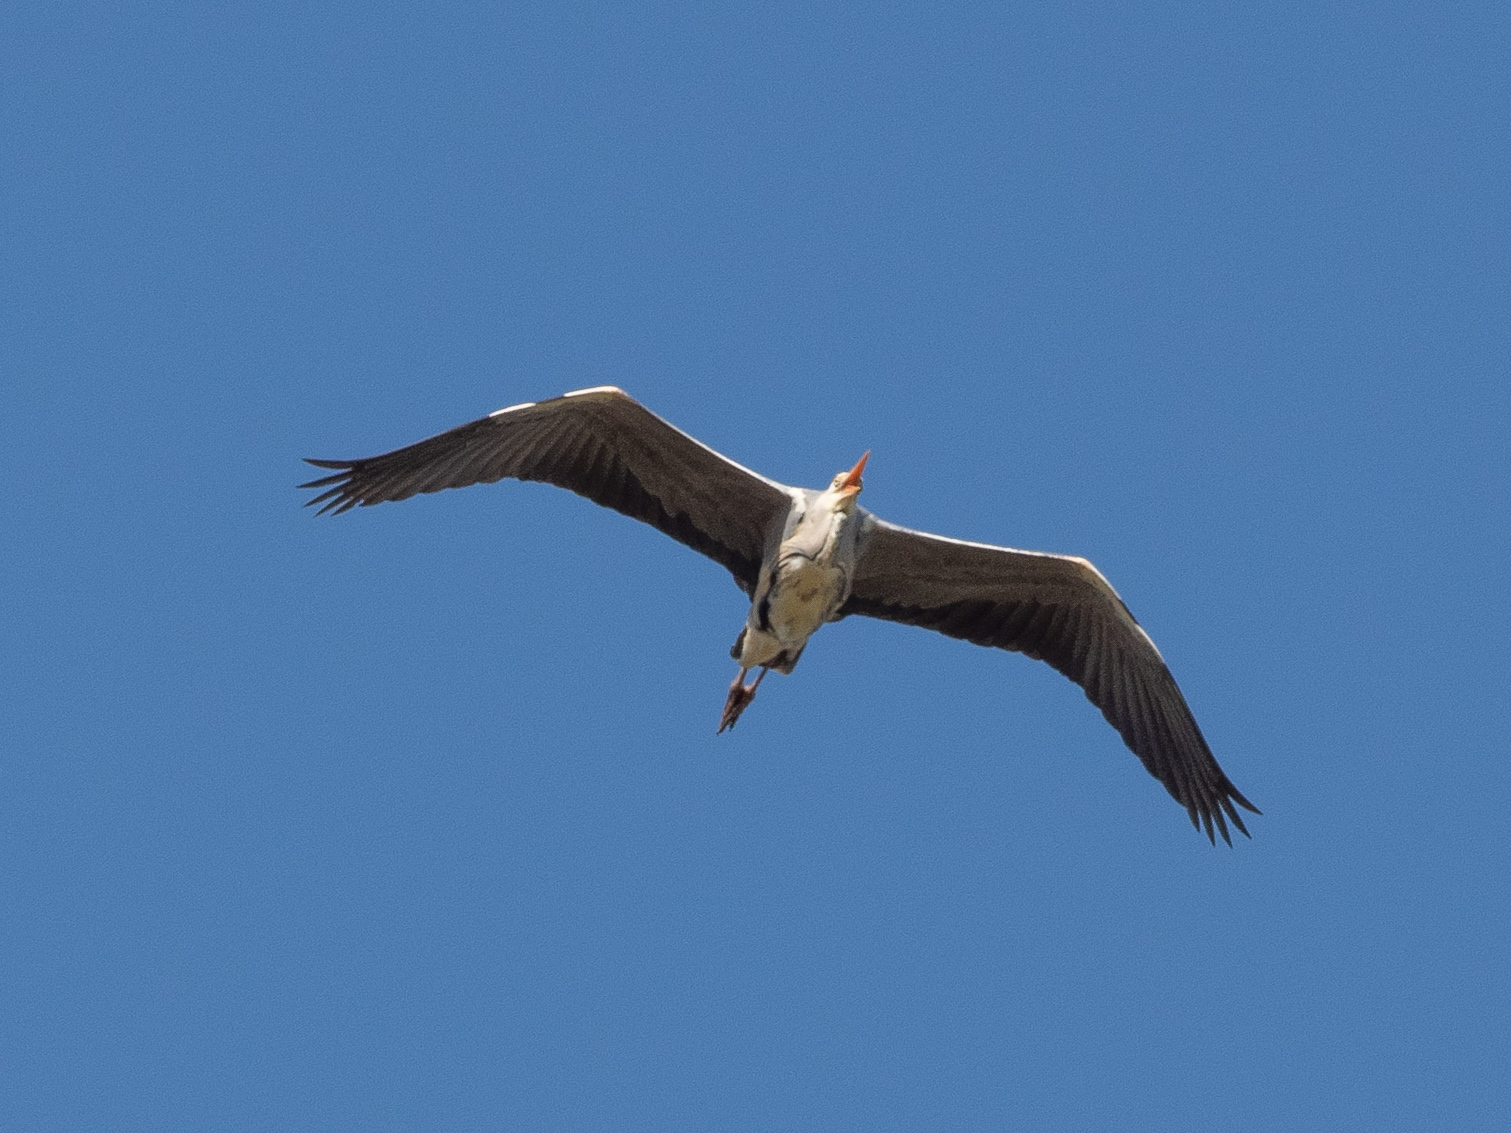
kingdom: Animalia
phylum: Chordata
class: Aves
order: Pelecaniformes
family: Ardeidae
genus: Ardea
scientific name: Ardea cinerea
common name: Grey heron
